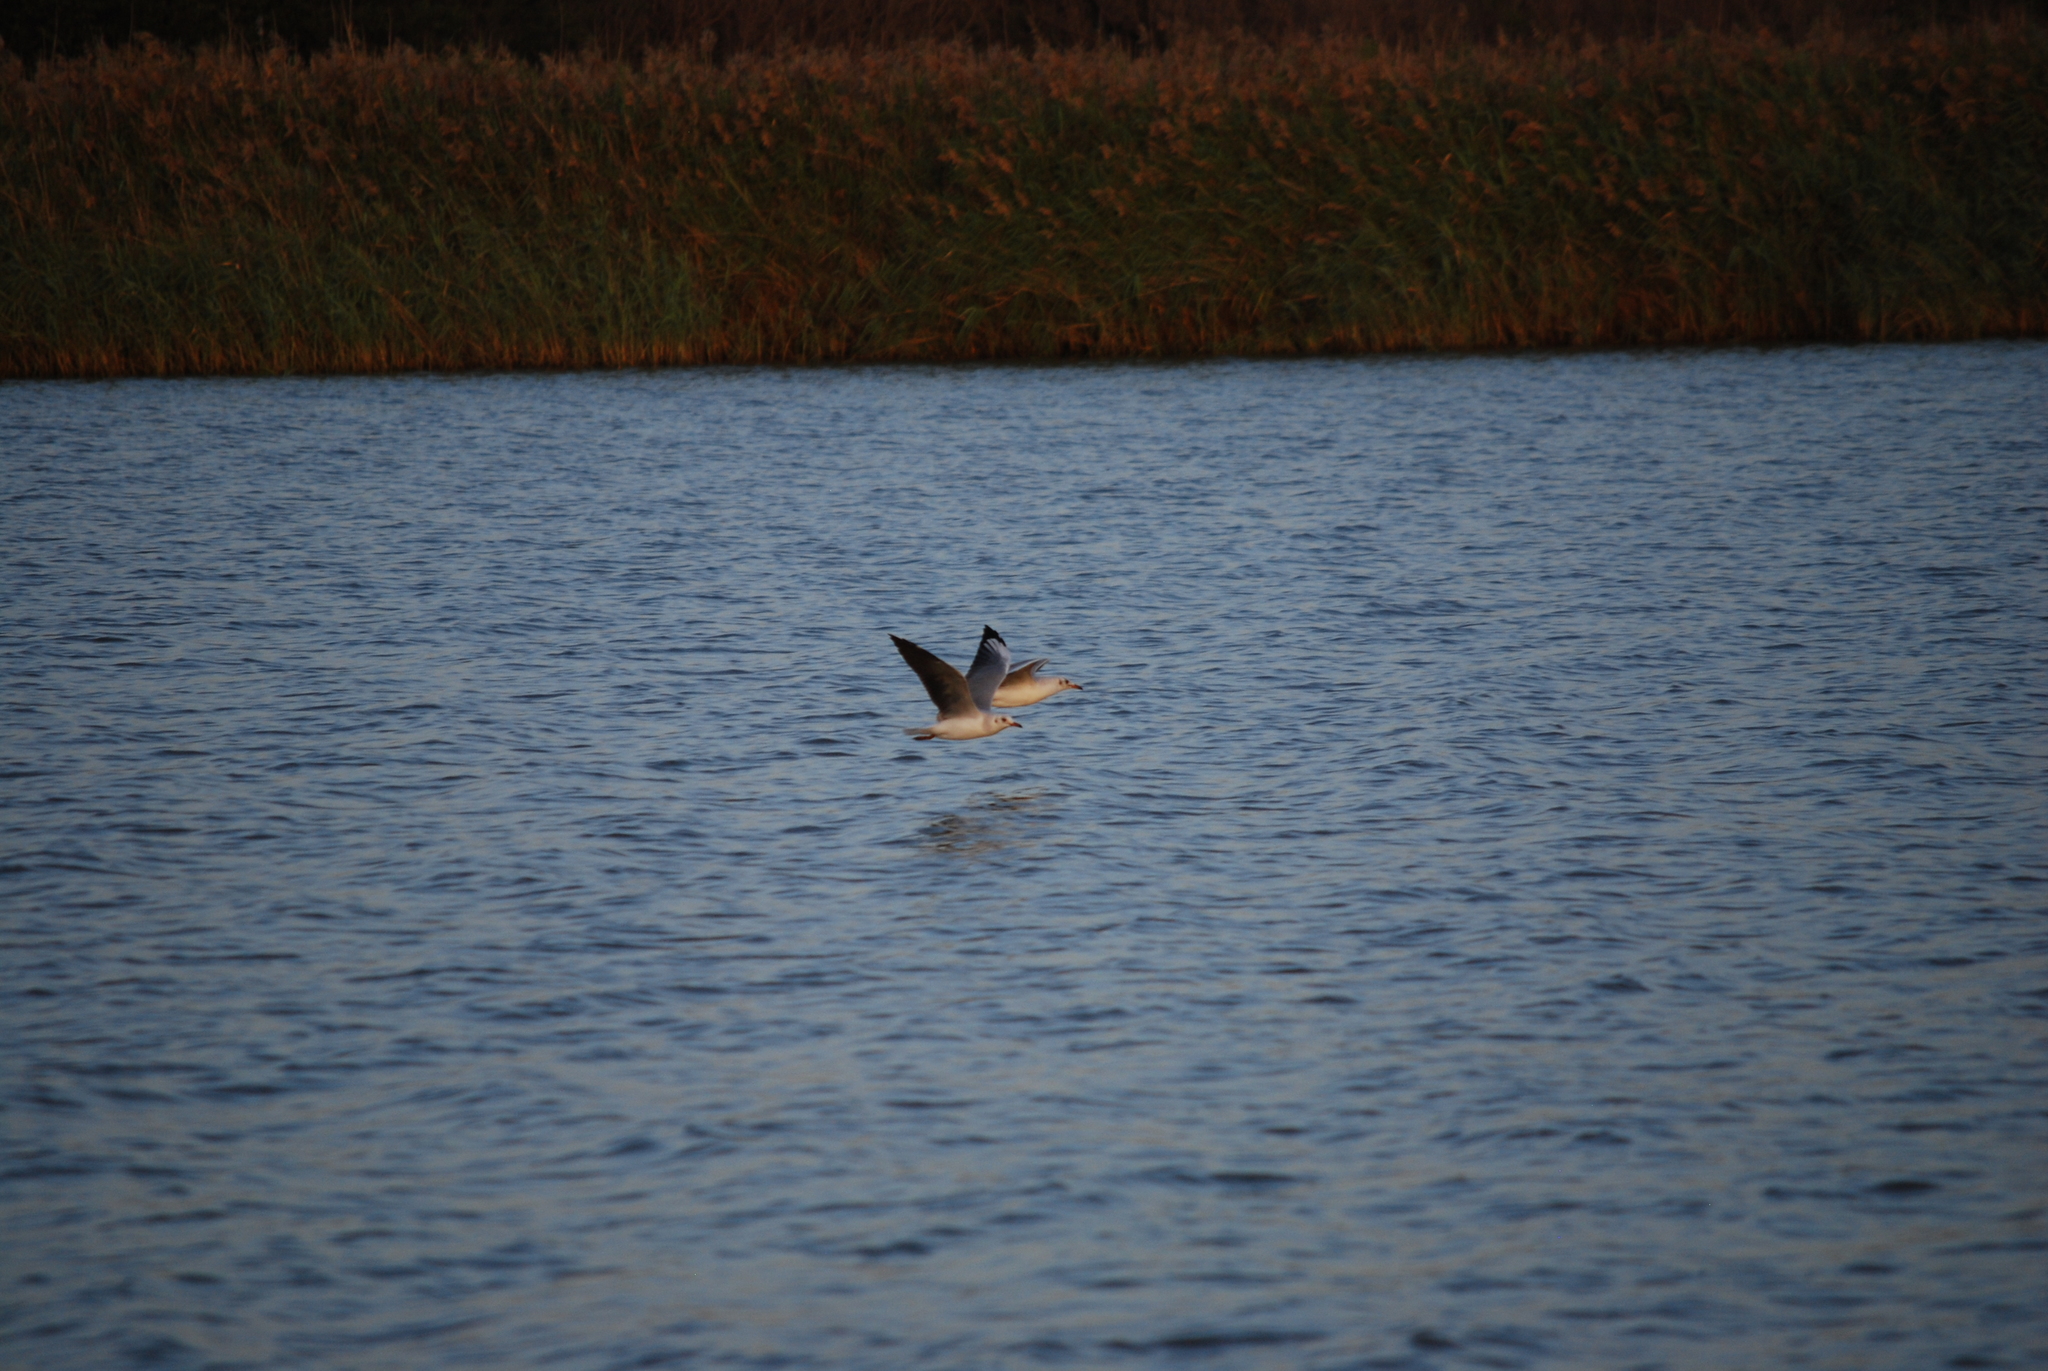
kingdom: Animalia
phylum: Chordata
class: Aves
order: Charadriiformes
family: Laridae
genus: Chroicocephalus
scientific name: Chroicocephalus cirrocephalus
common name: Grey-headed gull
